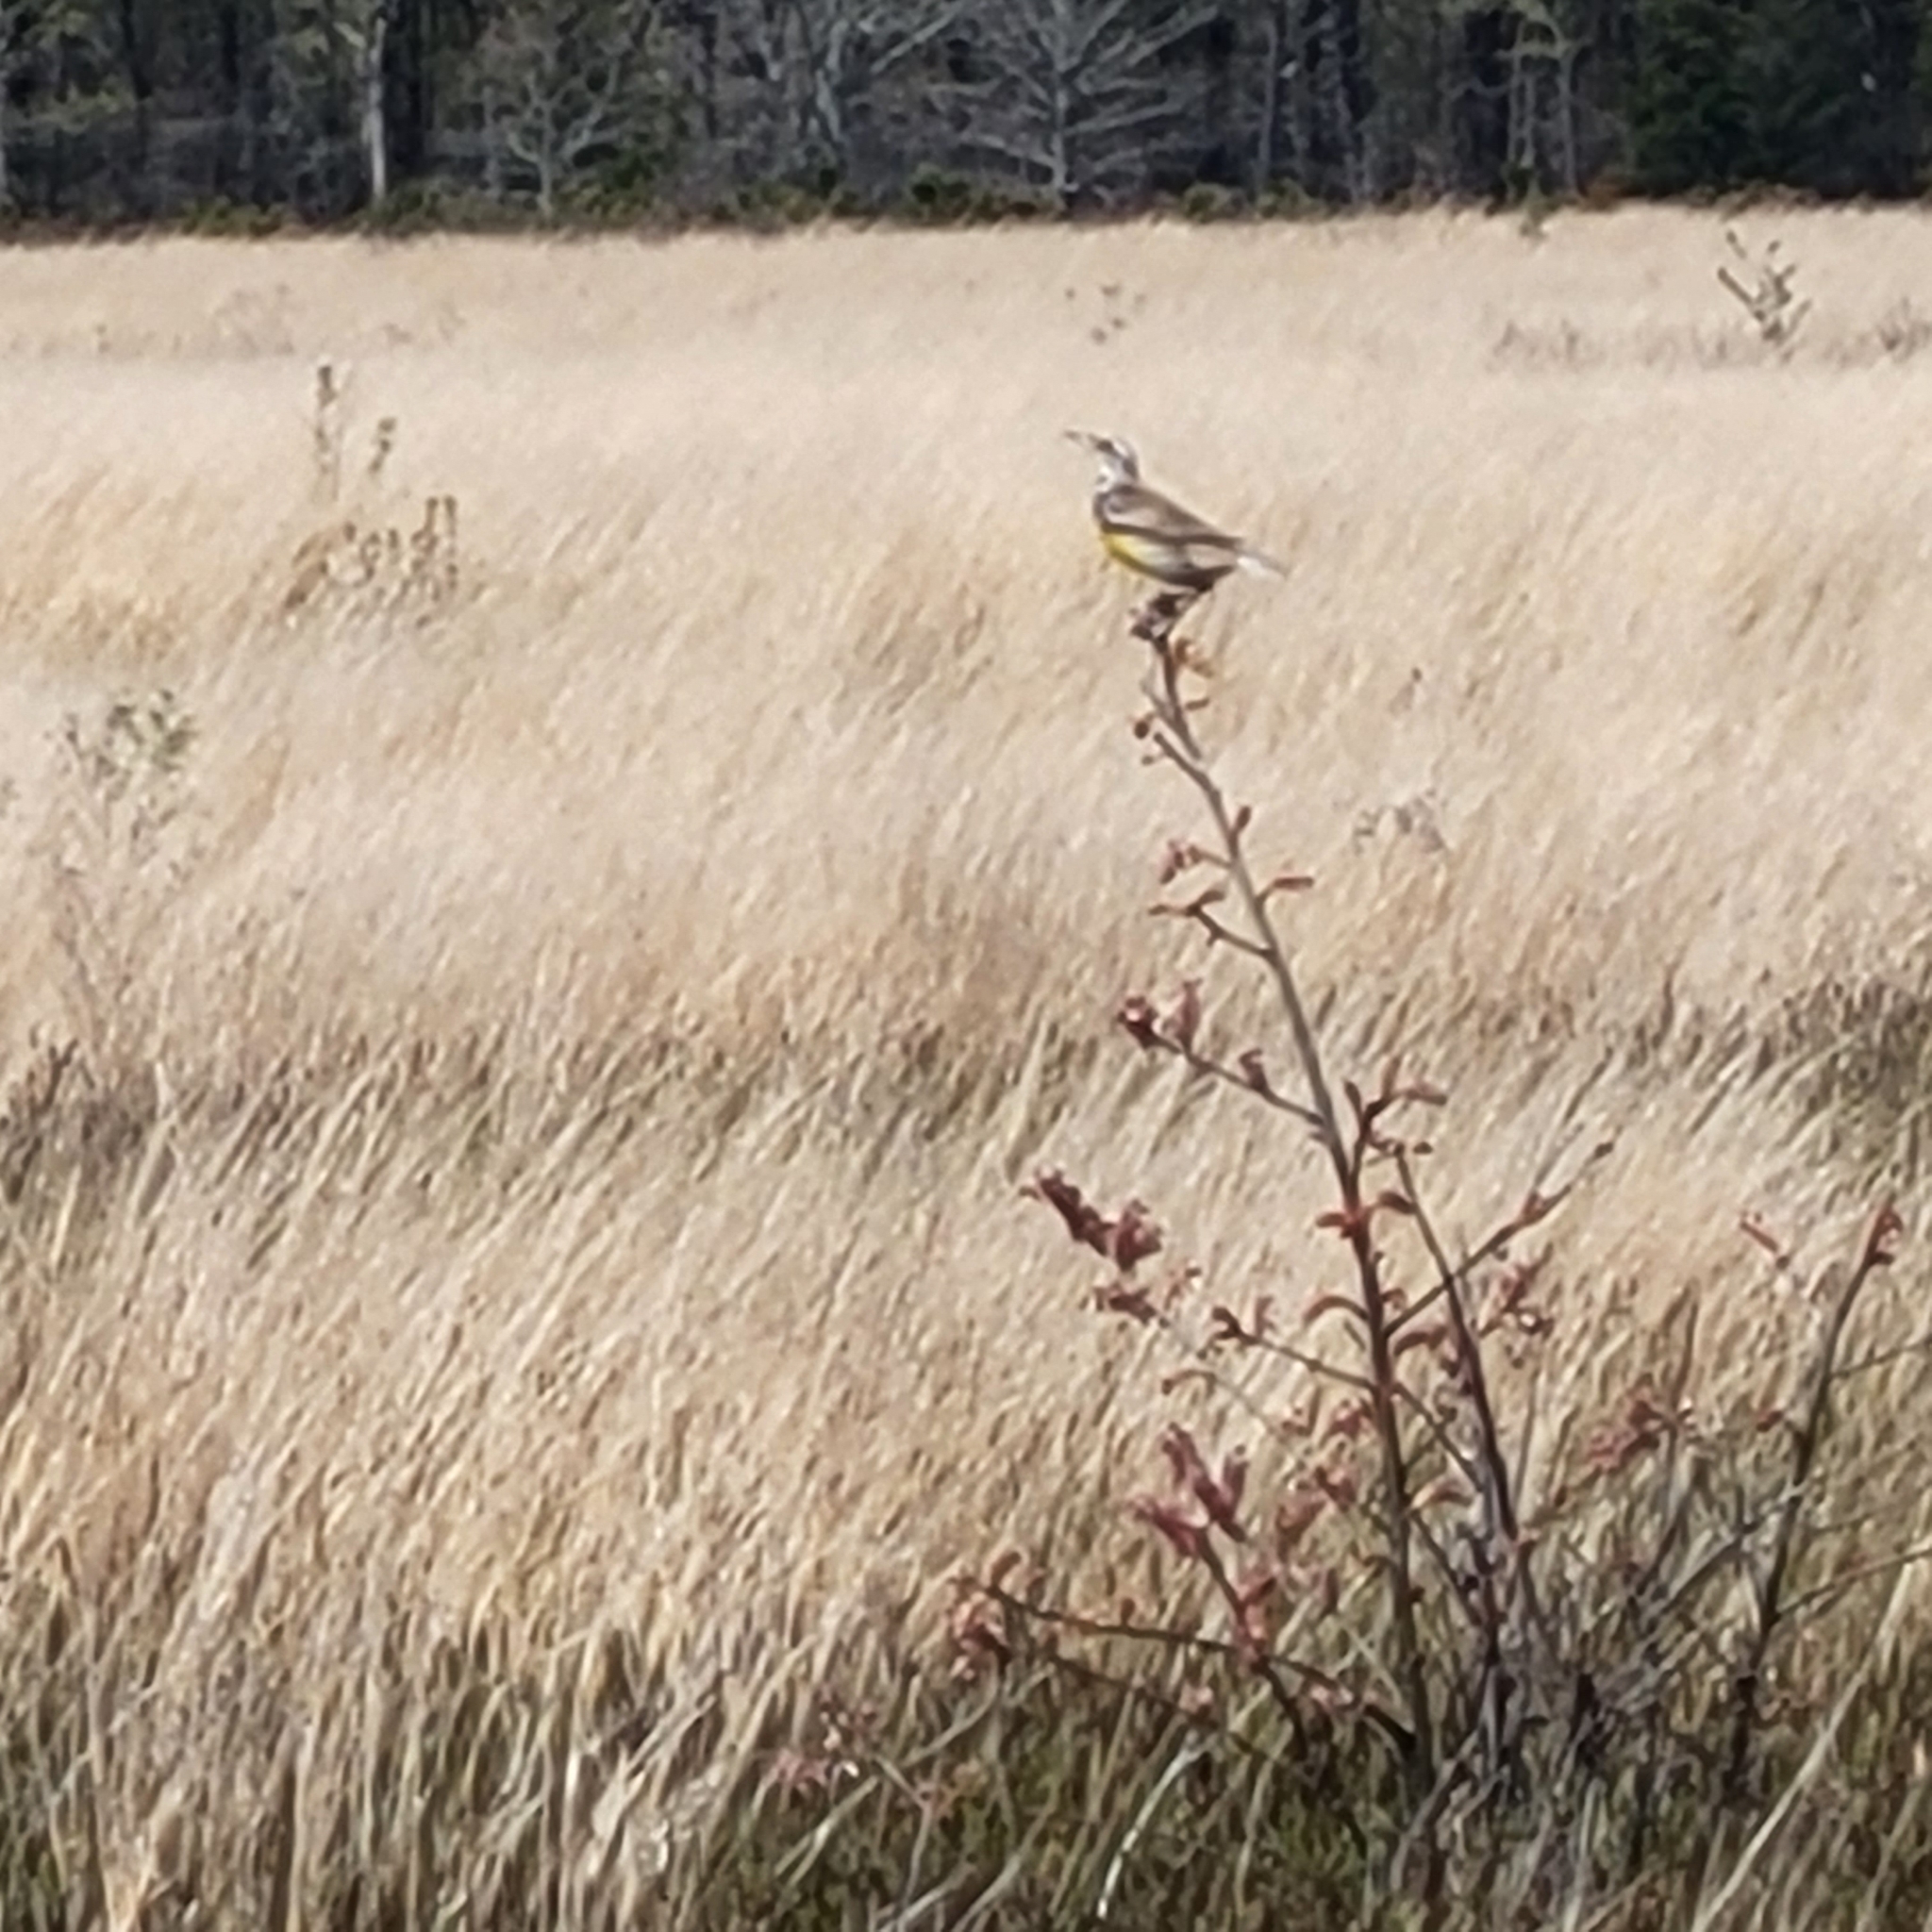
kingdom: Animalia
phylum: Chordata
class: Aves
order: Passeriformes
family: Icteridae
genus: Sturnella
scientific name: Sturnella magna
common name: Eastern meadowlark
